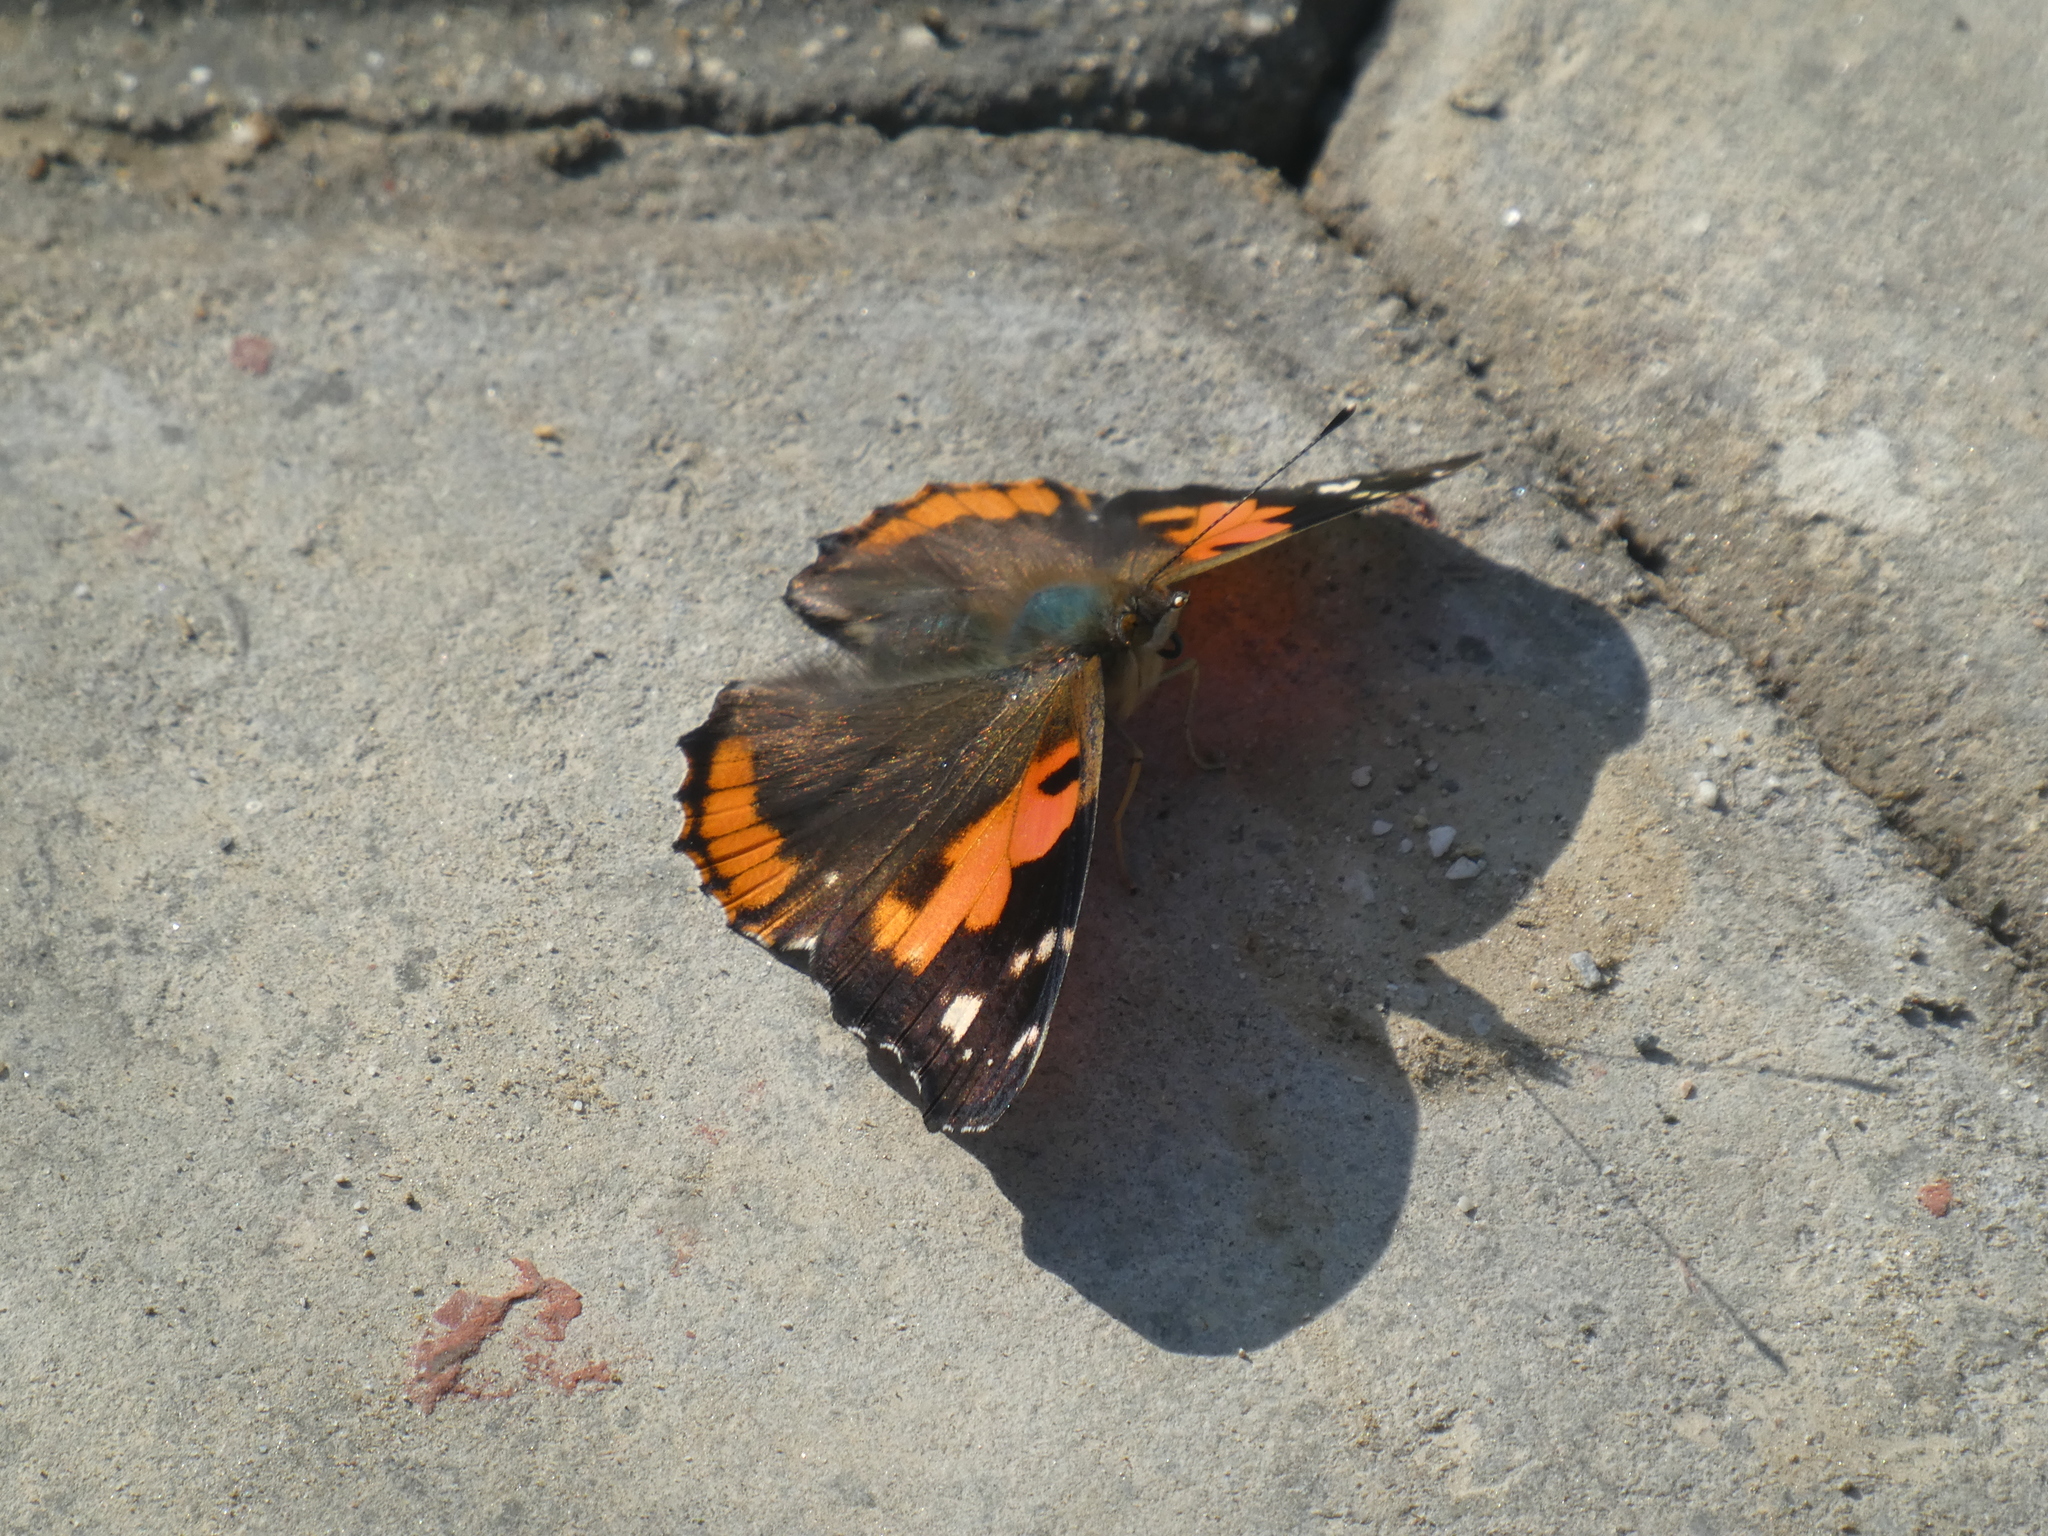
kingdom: Animalia
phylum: Arthropoda
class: Insecta
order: Lepidoptera
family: Nymphalidae
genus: Vanessa
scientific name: Vanessa indica
